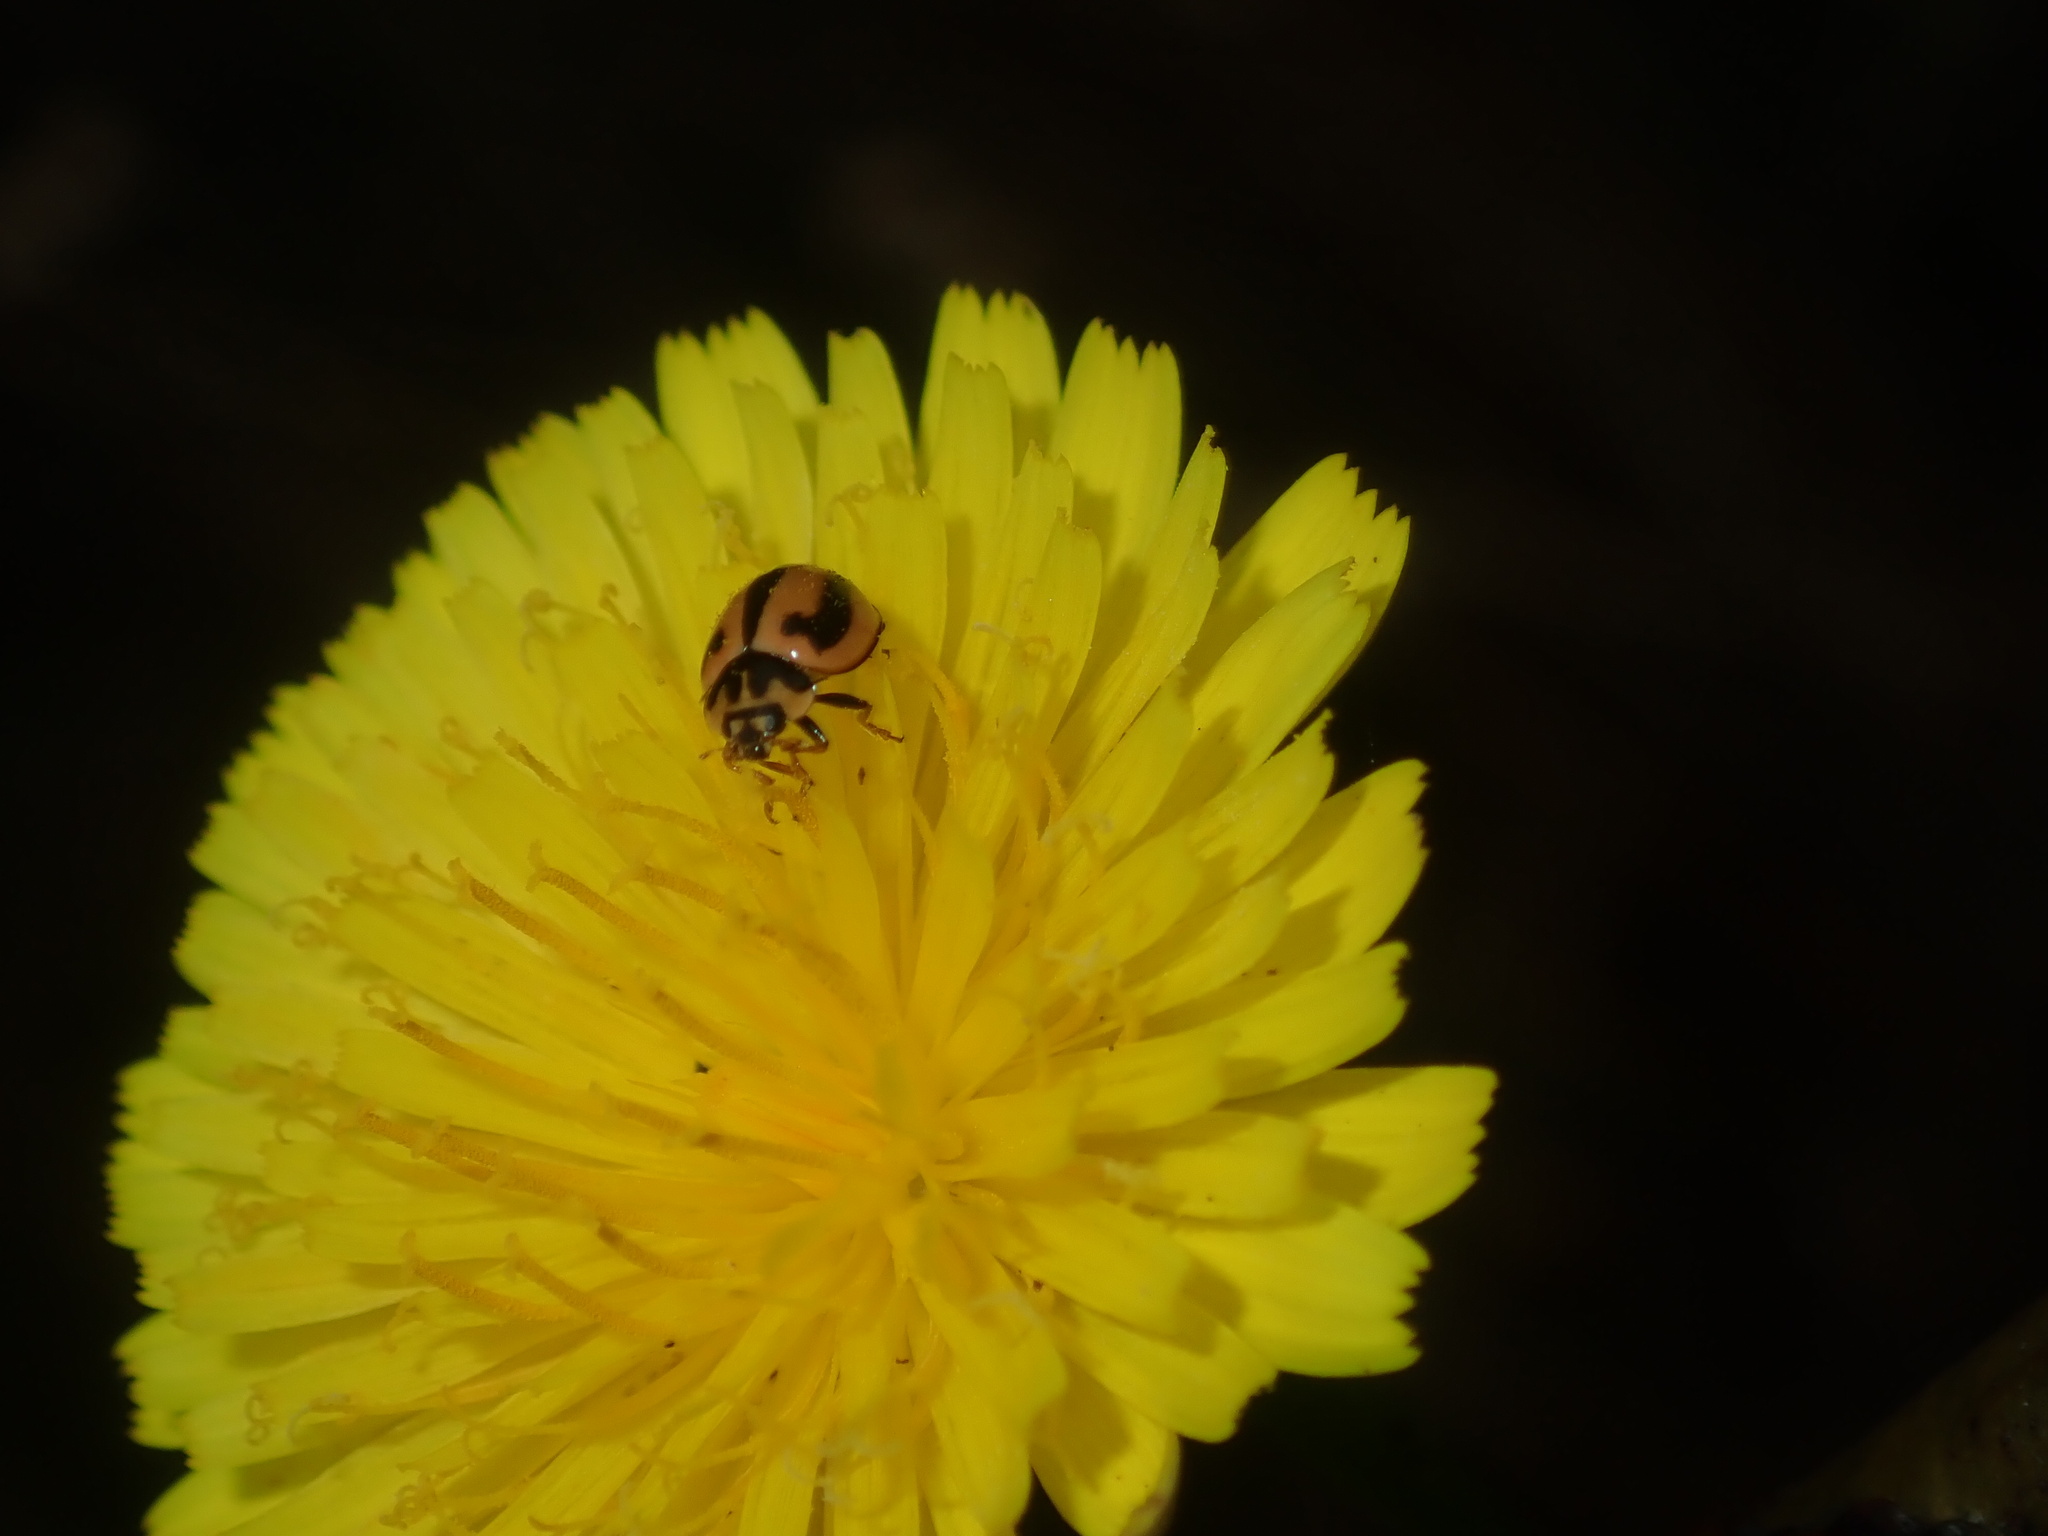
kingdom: Animalia
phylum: Arthropoda
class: Insecta
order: Coleoptera
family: Coccinellidae
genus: Micraspis
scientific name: Micraspis frenata
